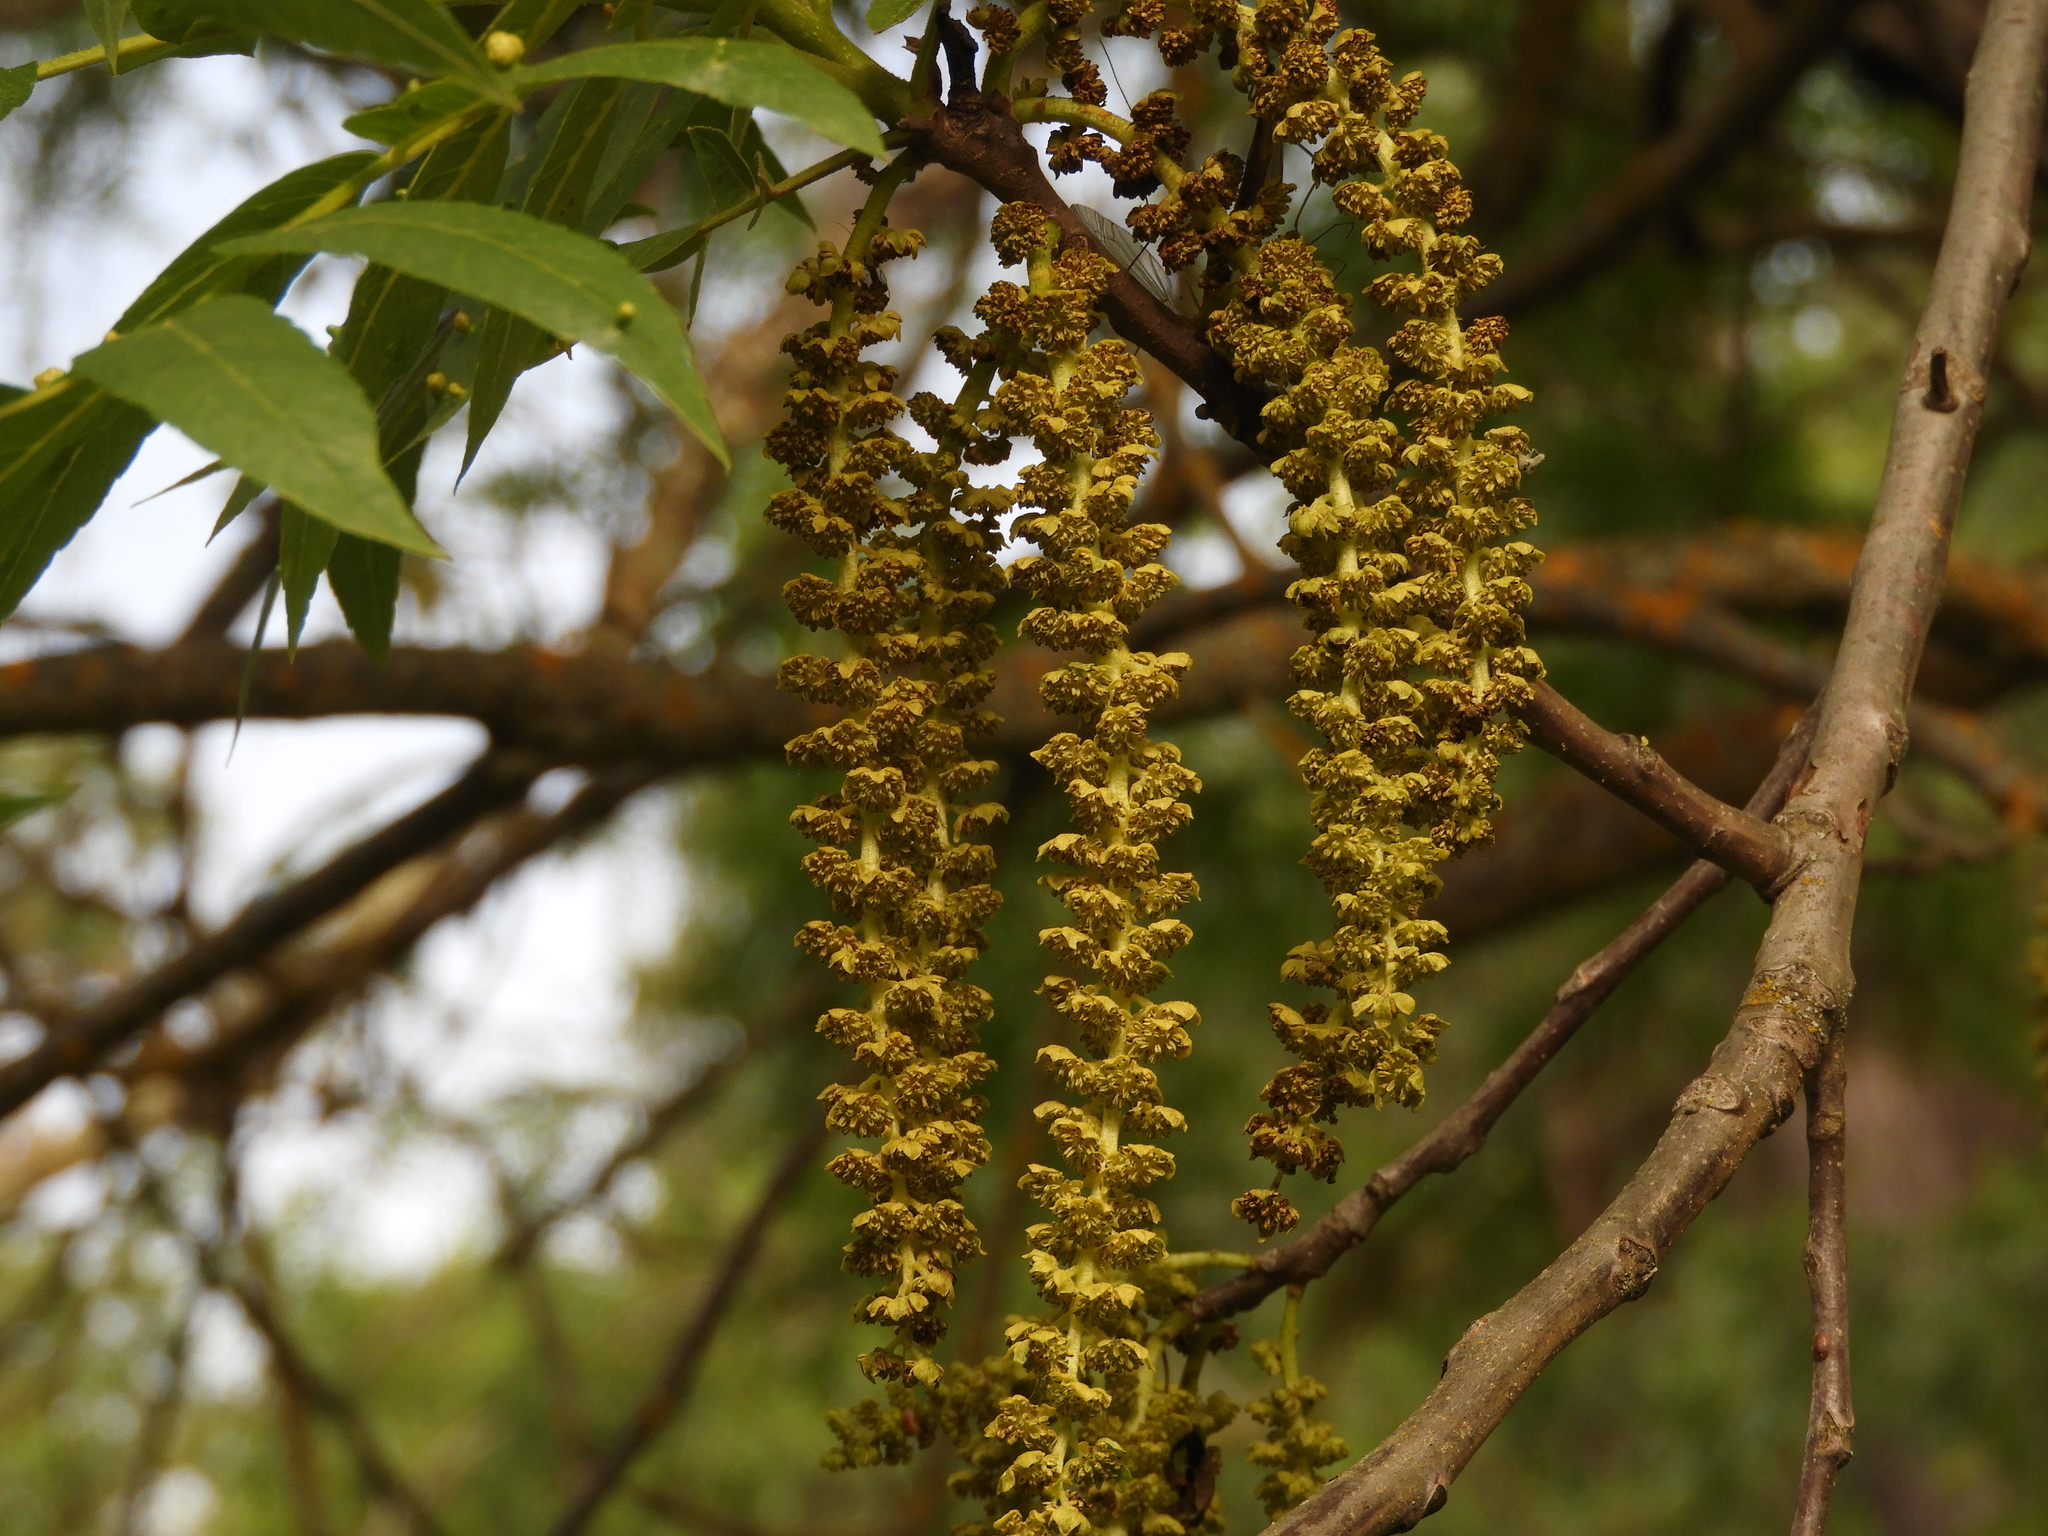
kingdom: Plantae
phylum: Tracheophyta
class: Magnoliopsida
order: Fagales
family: Juglandaceae
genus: Juglans
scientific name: Juglans hindsii
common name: Northern california black walnut
